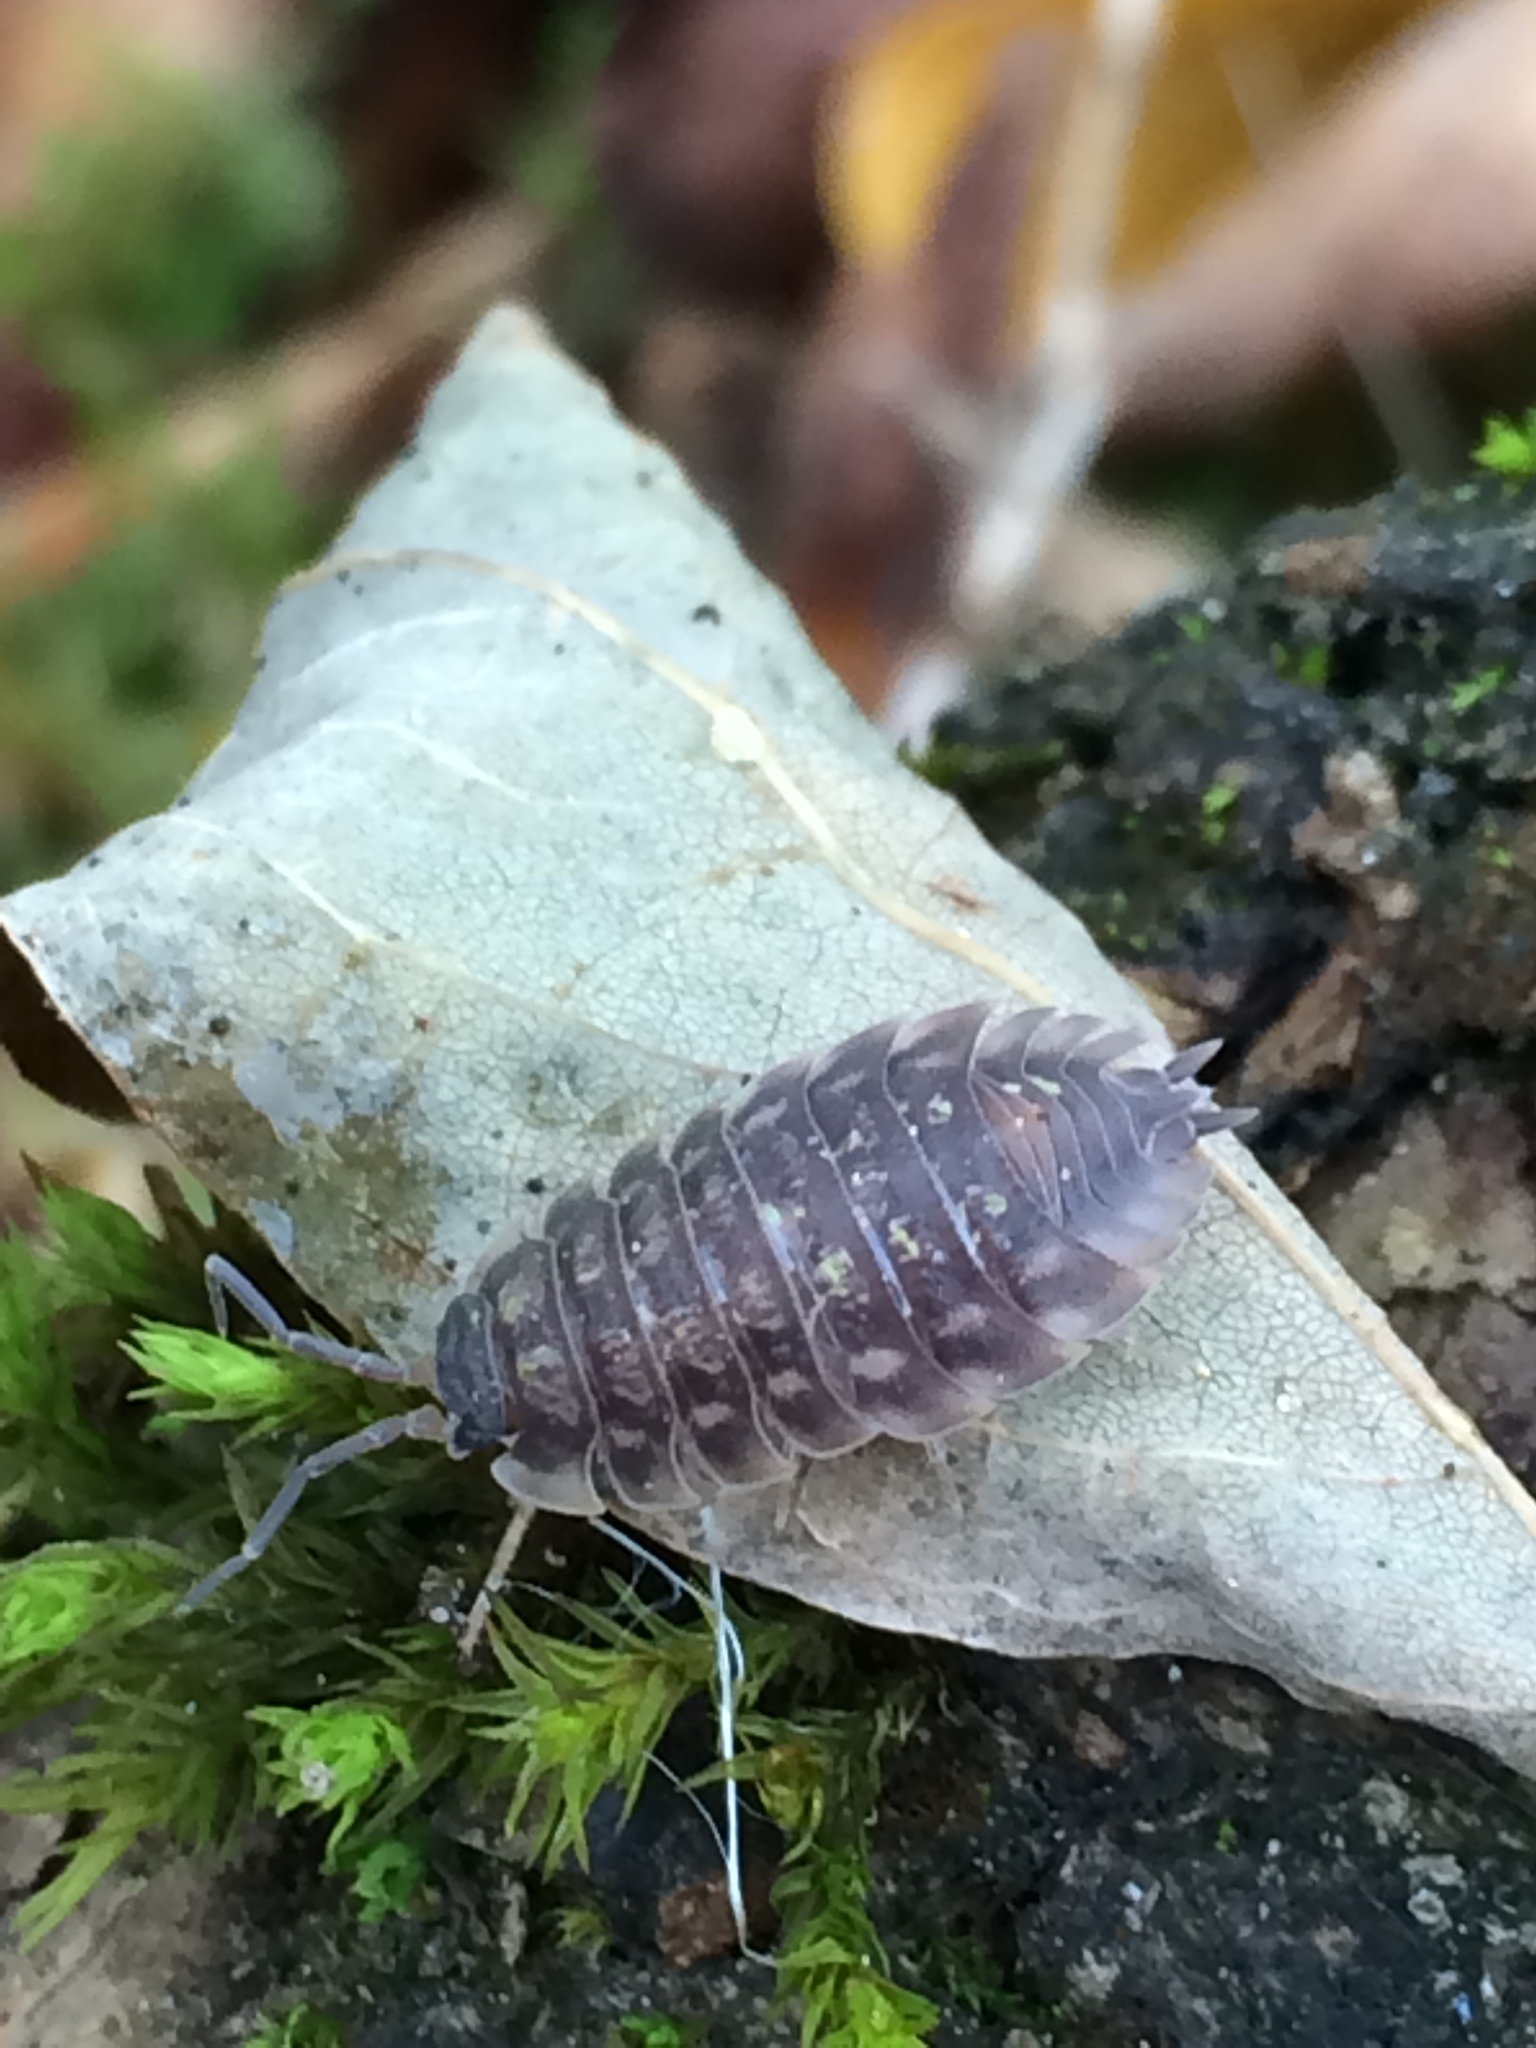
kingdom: Animalia
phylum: Arthropoda
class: Malacostraca
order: Isopoda
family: Oniscidae
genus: Oniscus
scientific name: Oniscus asellus
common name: Common shiny woodlouse
